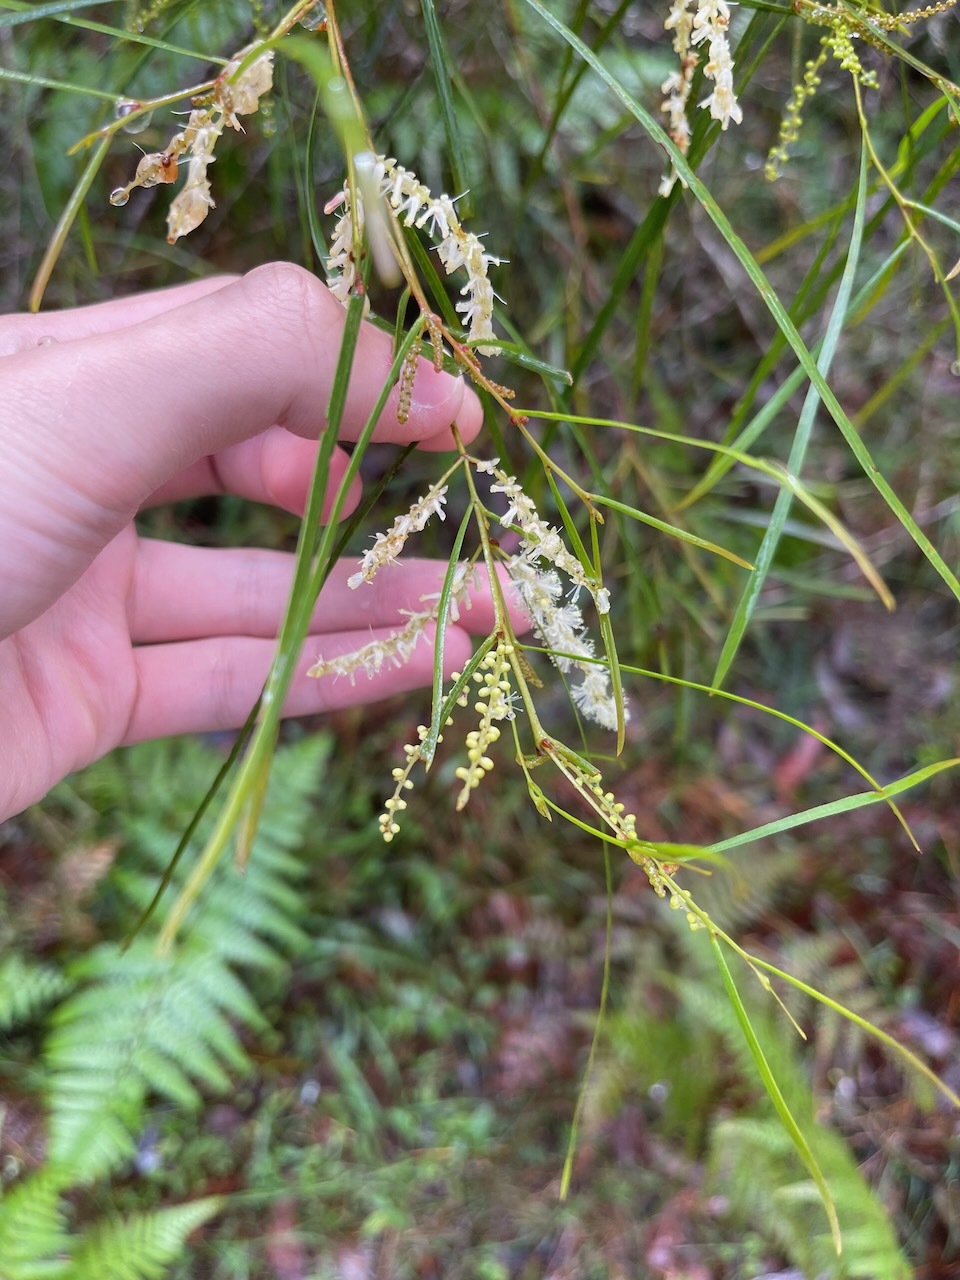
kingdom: Plantae
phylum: Tracheophyta
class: Magnoliopsida
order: Fabales
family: Fabaceae
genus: Acacia
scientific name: Acacia longissima
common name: Longleaf wattle
